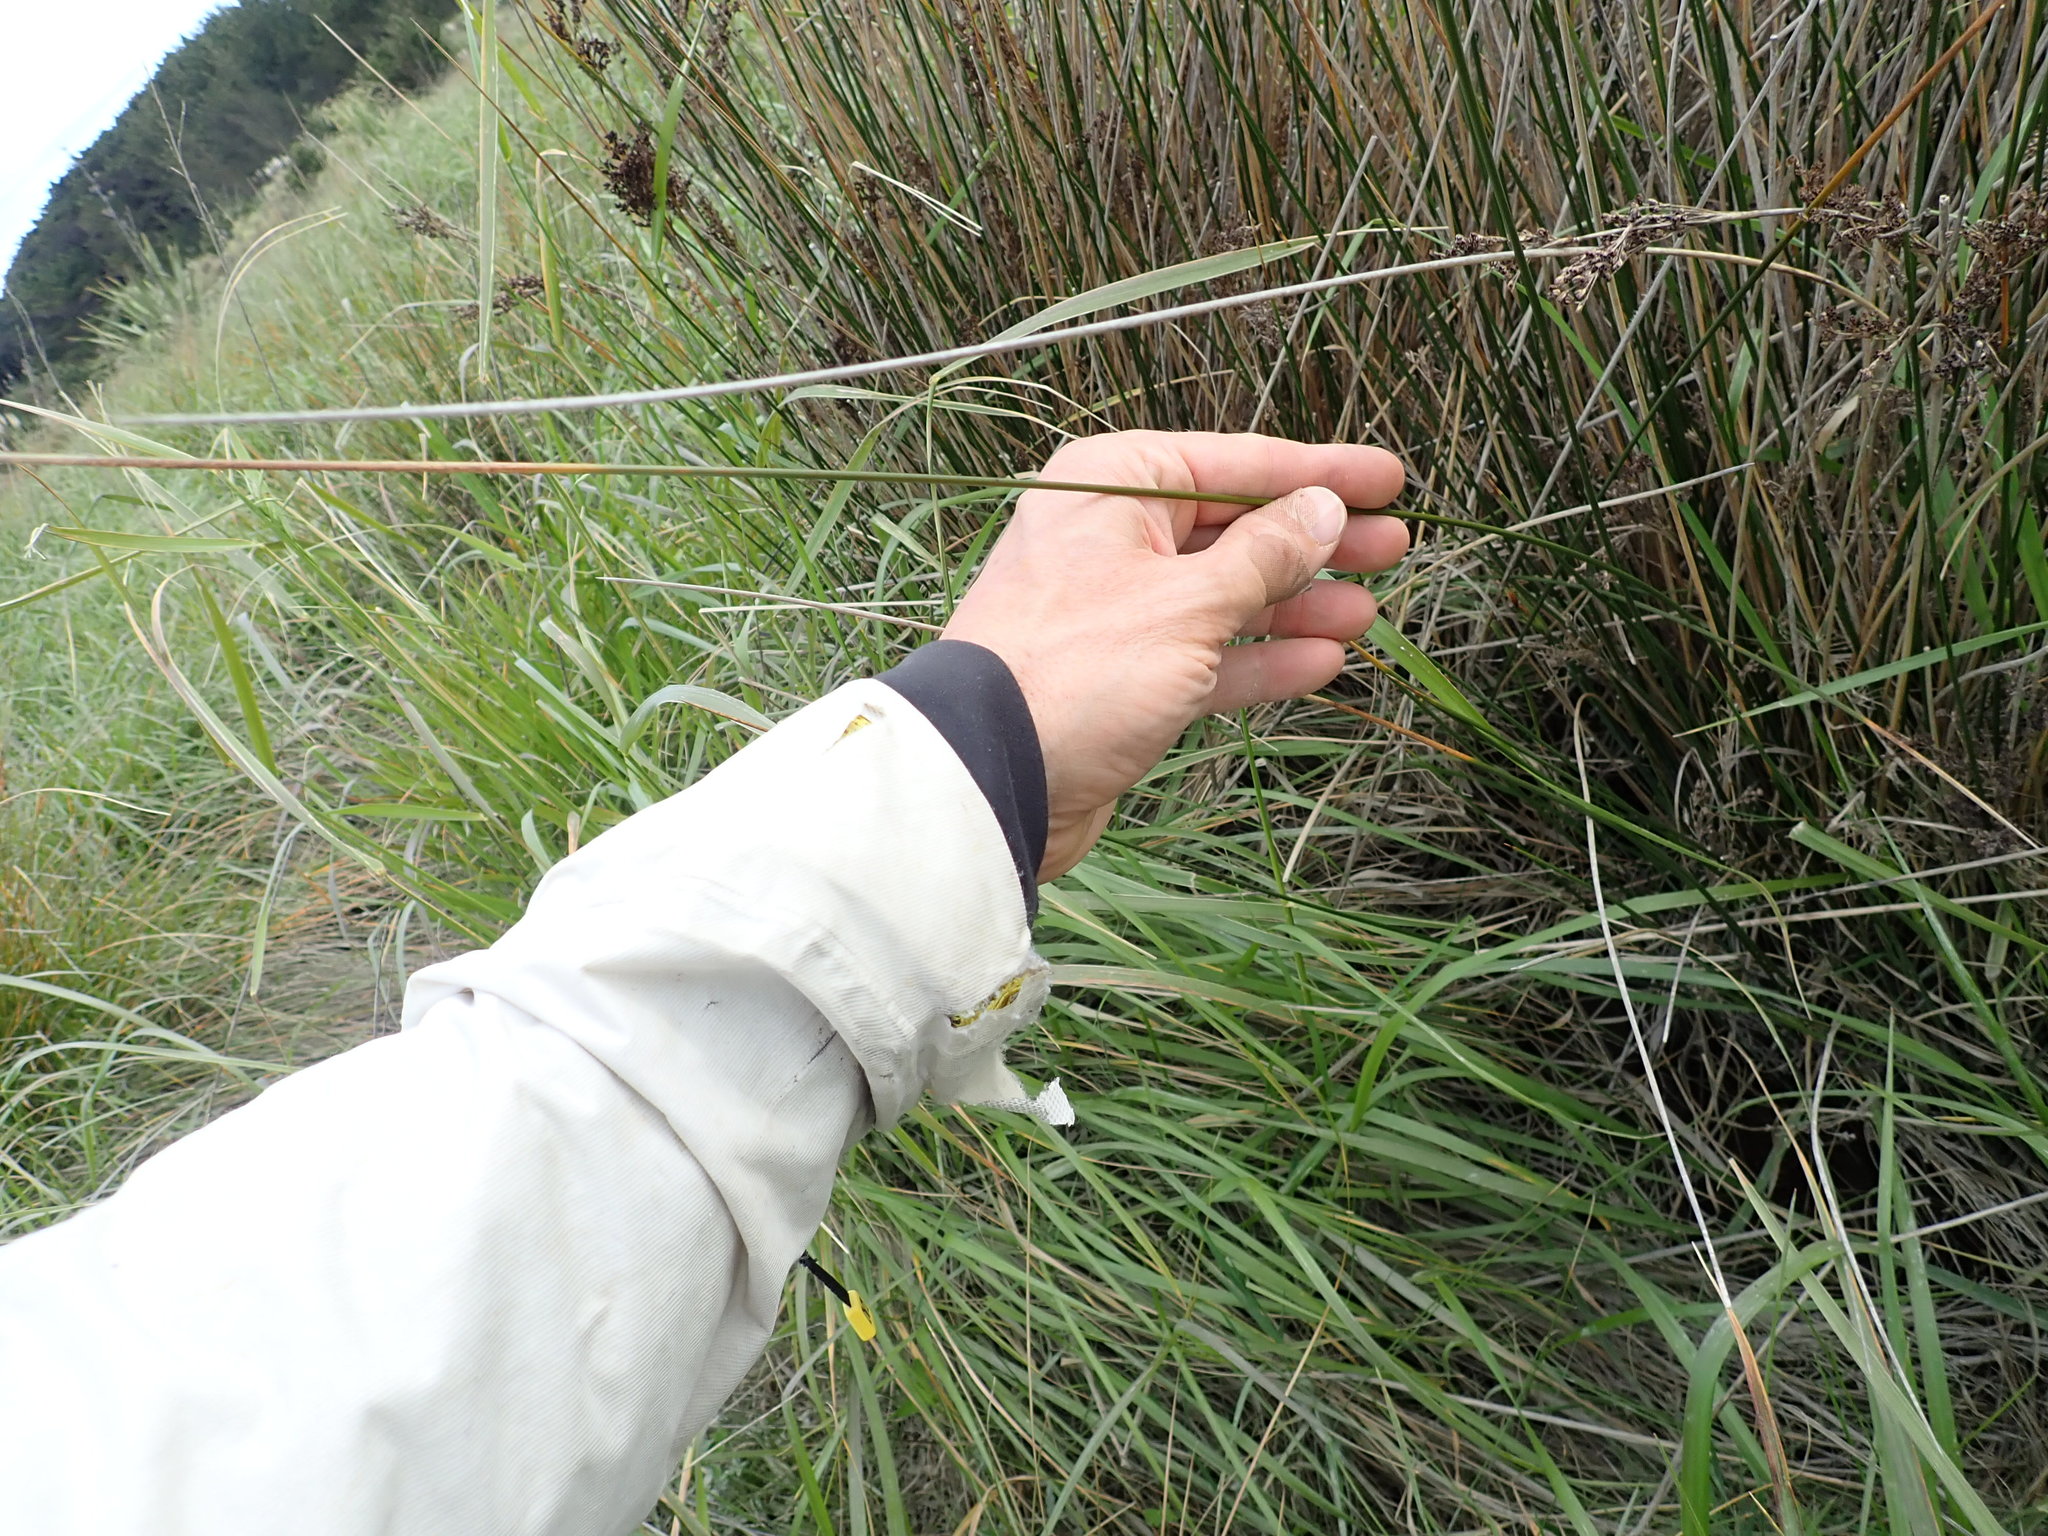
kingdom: Plantae
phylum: Tracheophyta
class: Liliopsida
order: Poales
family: Juncaceae
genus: Juncus
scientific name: Juncus kraussii
